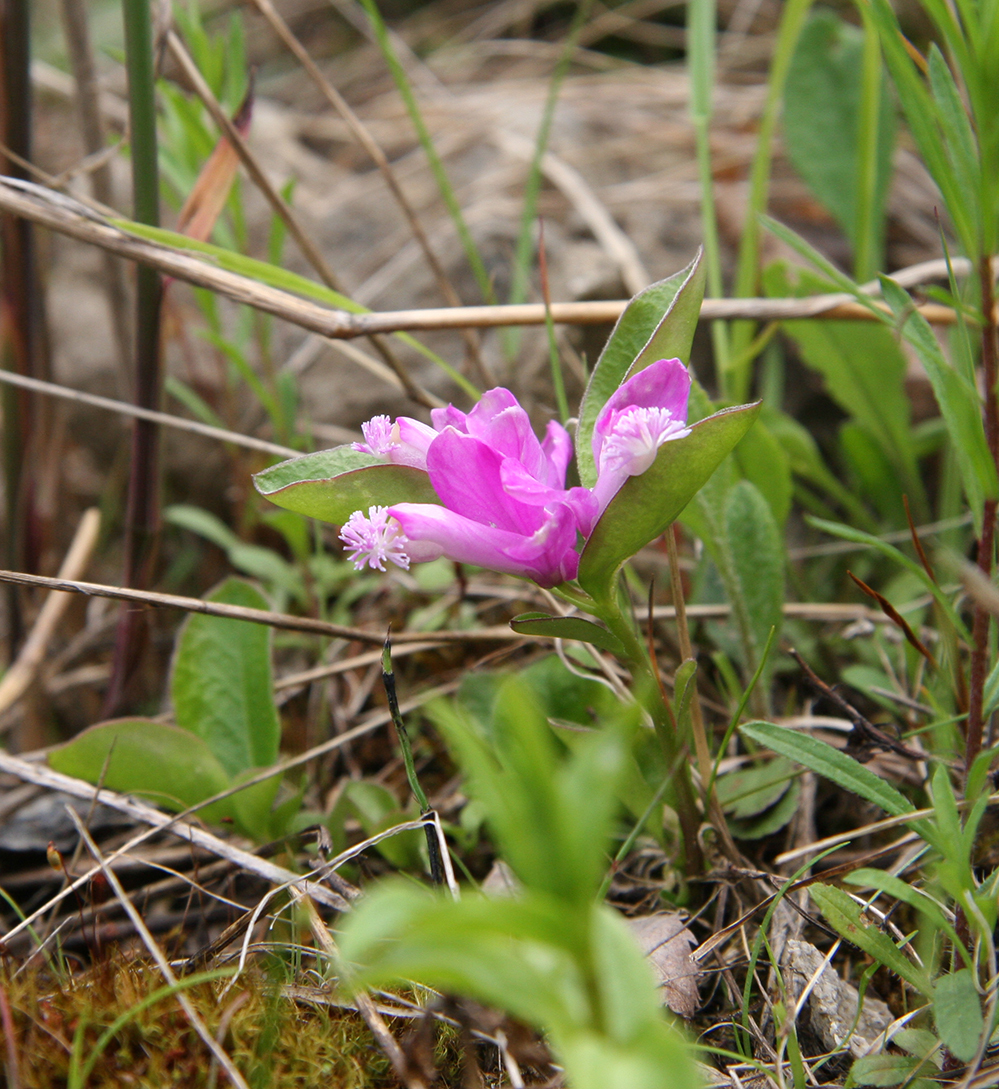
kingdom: Plantae
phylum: Tracheophyta
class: Magnoliopsida
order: Fabales
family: Polygalaceae
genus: Polygaloides
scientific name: Polygaloides paucifolia
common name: Bird-on-the-wing
